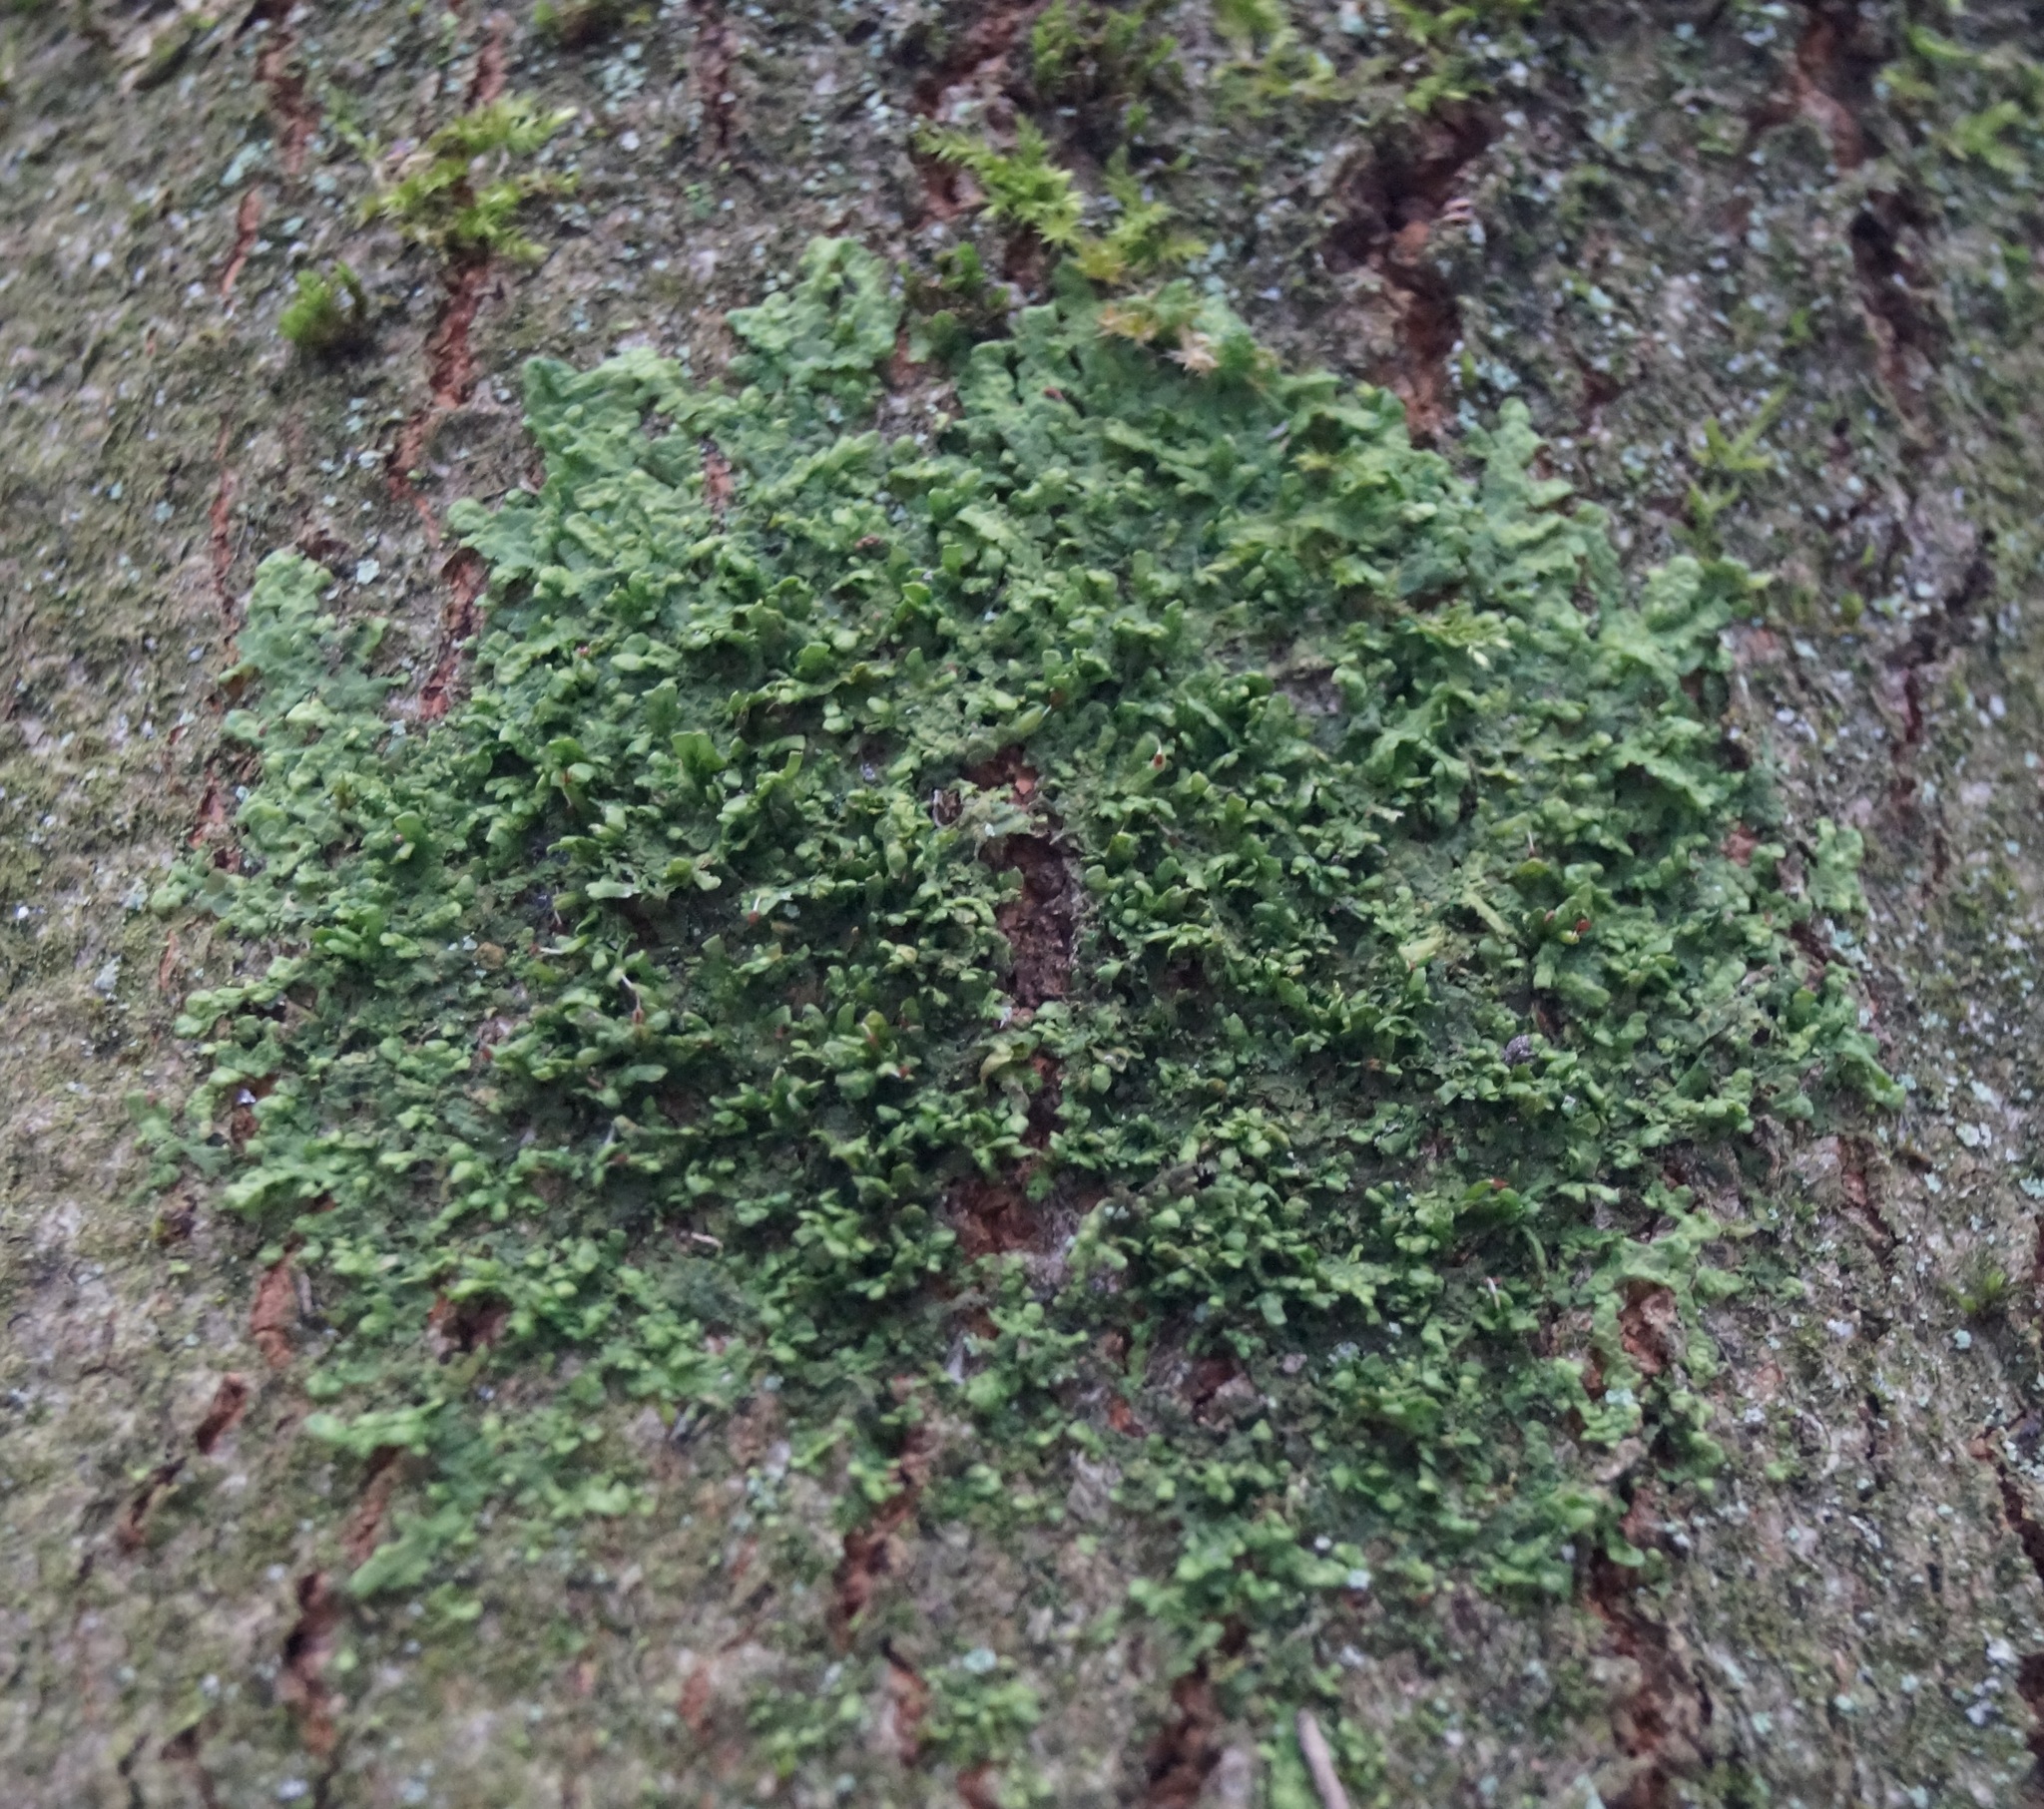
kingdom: Plantae
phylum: Marchantiophyta
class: Jungermanniopsida
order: Porellales
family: Radulaceae
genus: Radula
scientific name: Radula complanata
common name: Flat-leaved scalewort
